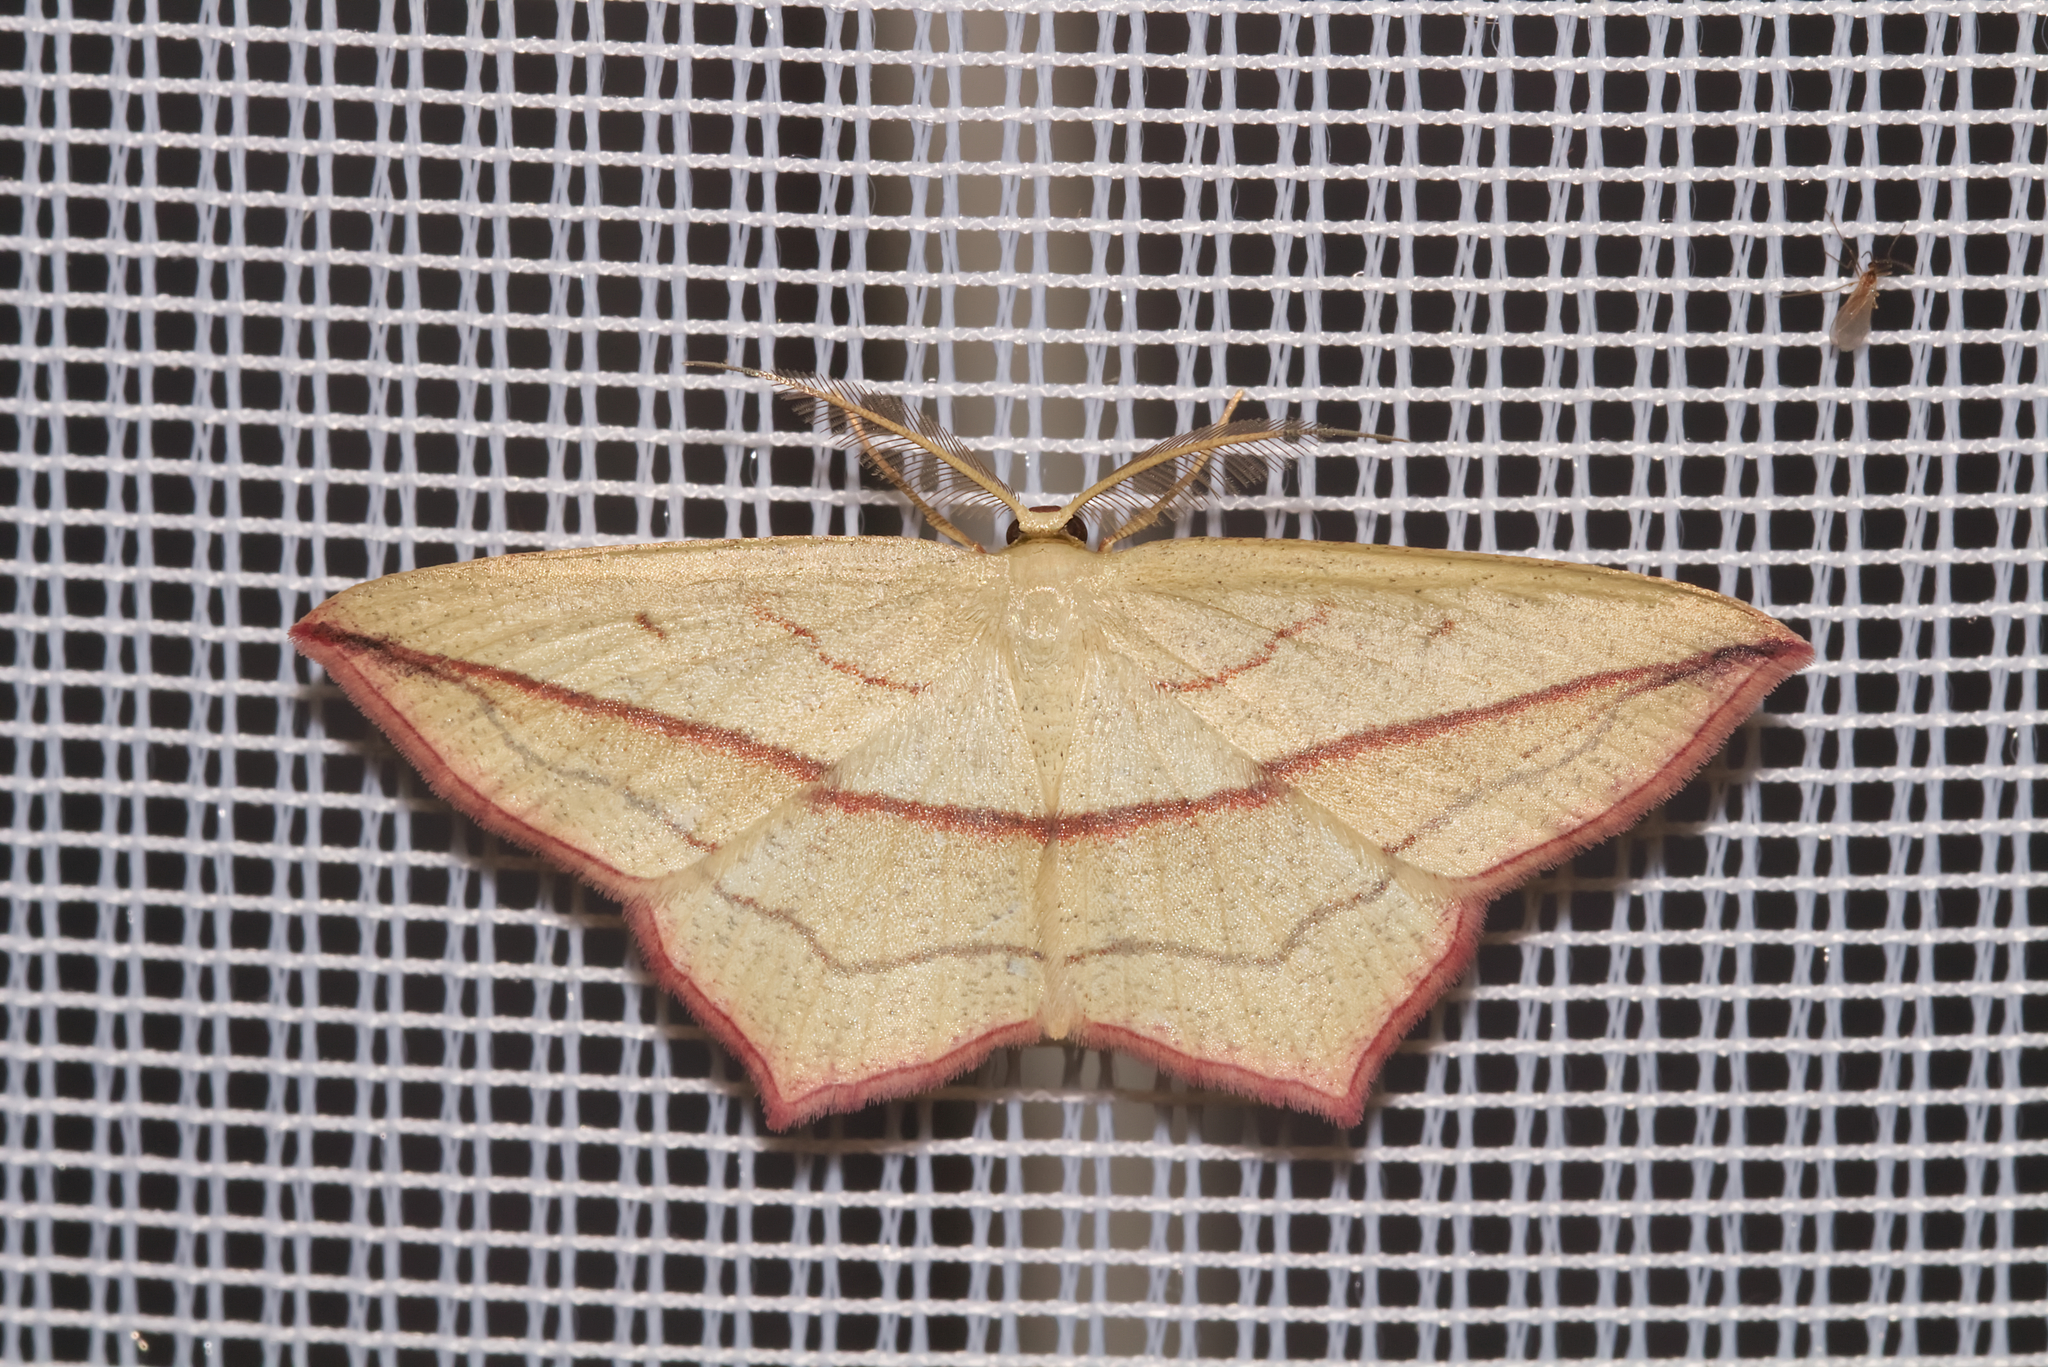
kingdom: Animalia
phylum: Arthropoda
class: Insecta
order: Lepidoptera
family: Geometridae
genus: Timandra
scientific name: Timandra comae
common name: Blood-vein
